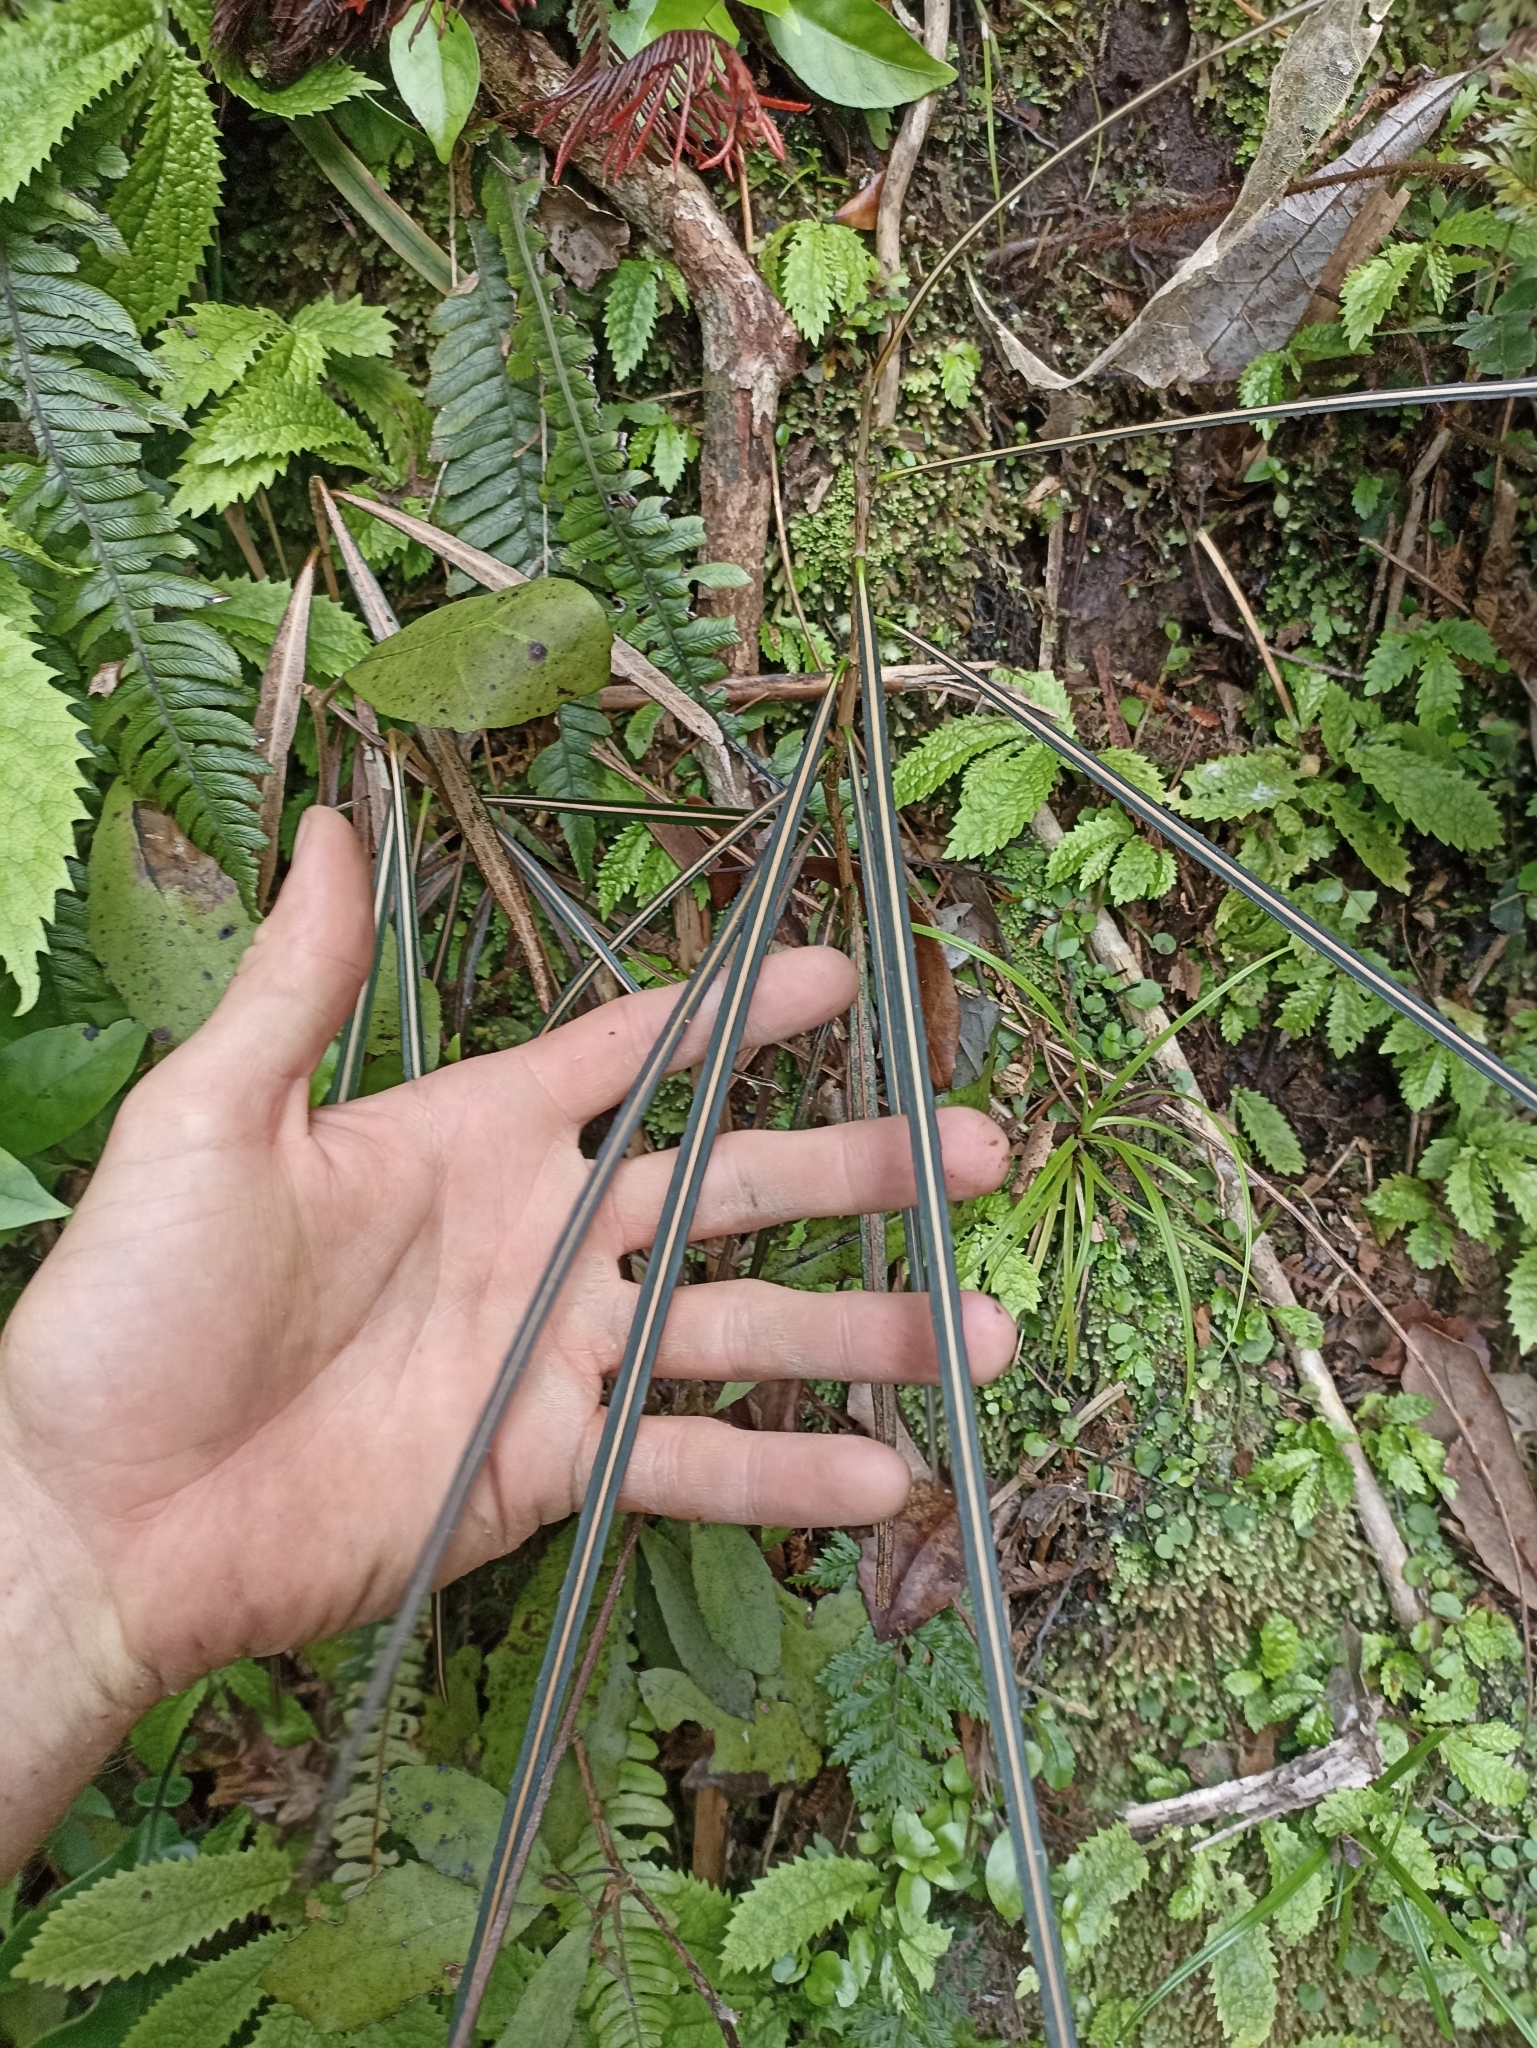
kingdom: Plantae
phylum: Tracheophyta
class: Magnoliopsida
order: Apiales
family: Araliaceae
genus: Pseudopanax
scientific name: Pseudopanax crassifolius
